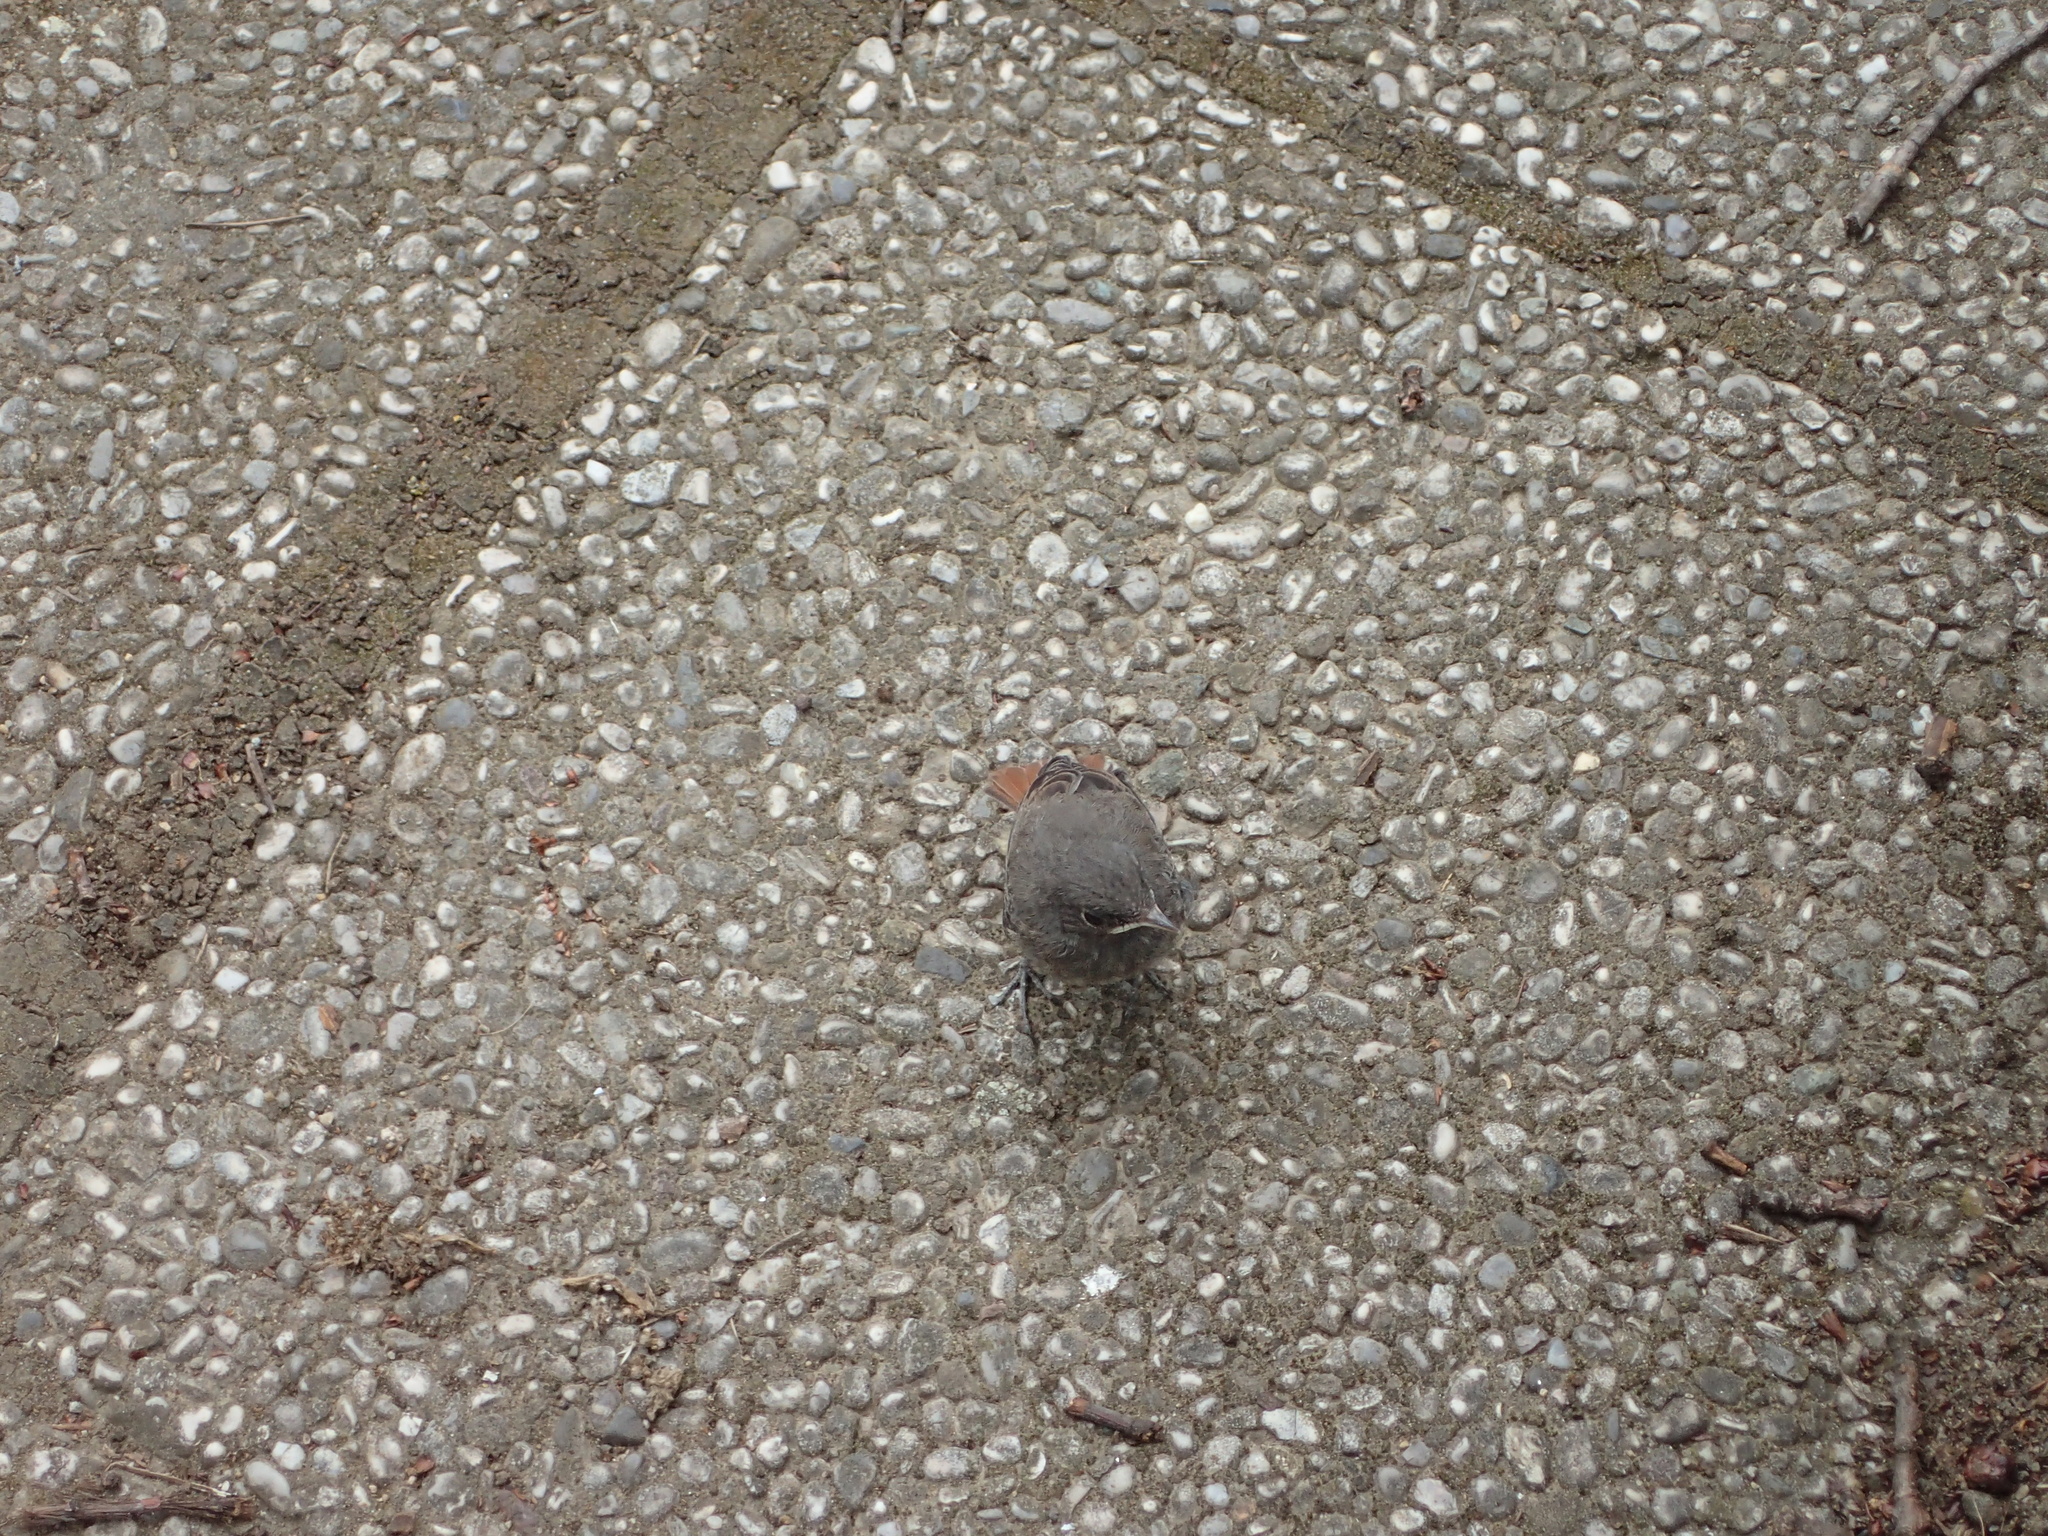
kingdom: Animalia
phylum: Chordata
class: Aves
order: Passeriformes
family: Muscicapidae
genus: Phoenicurus
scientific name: Phoenicurus ochruros
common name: Black redstart
